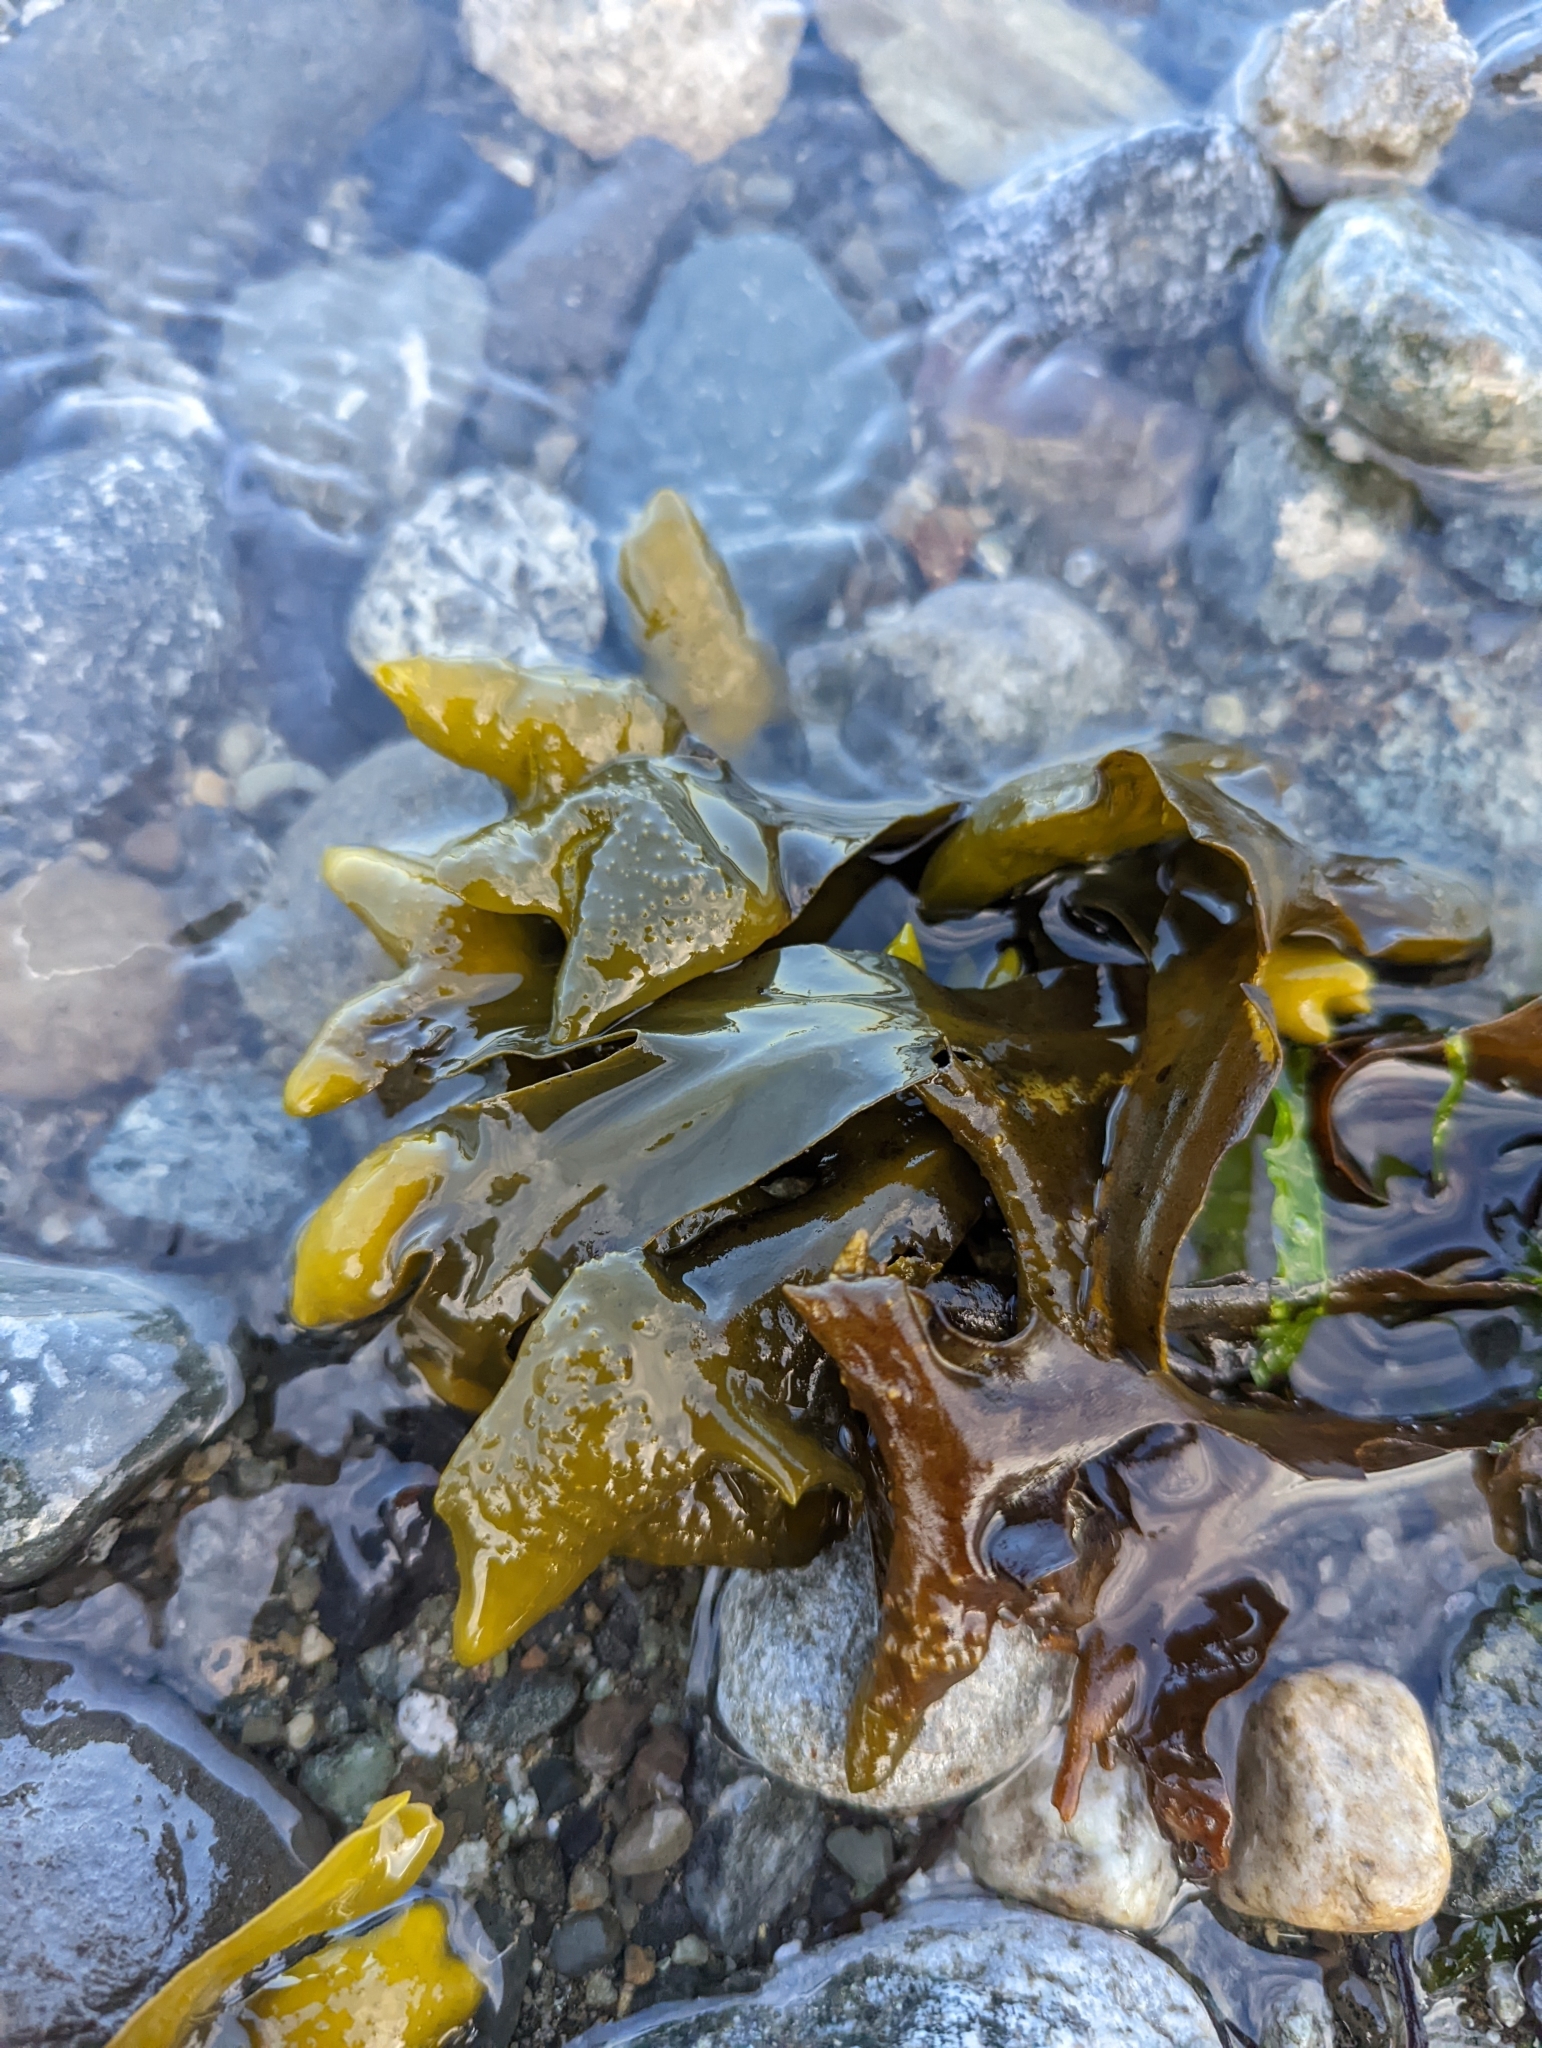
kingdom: Chromista
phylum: Ochrophyta
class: Phaeophyceae
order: Fucales
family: Fucaceae
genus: Fucus
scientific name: Fucus distichus
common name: Rockweed
